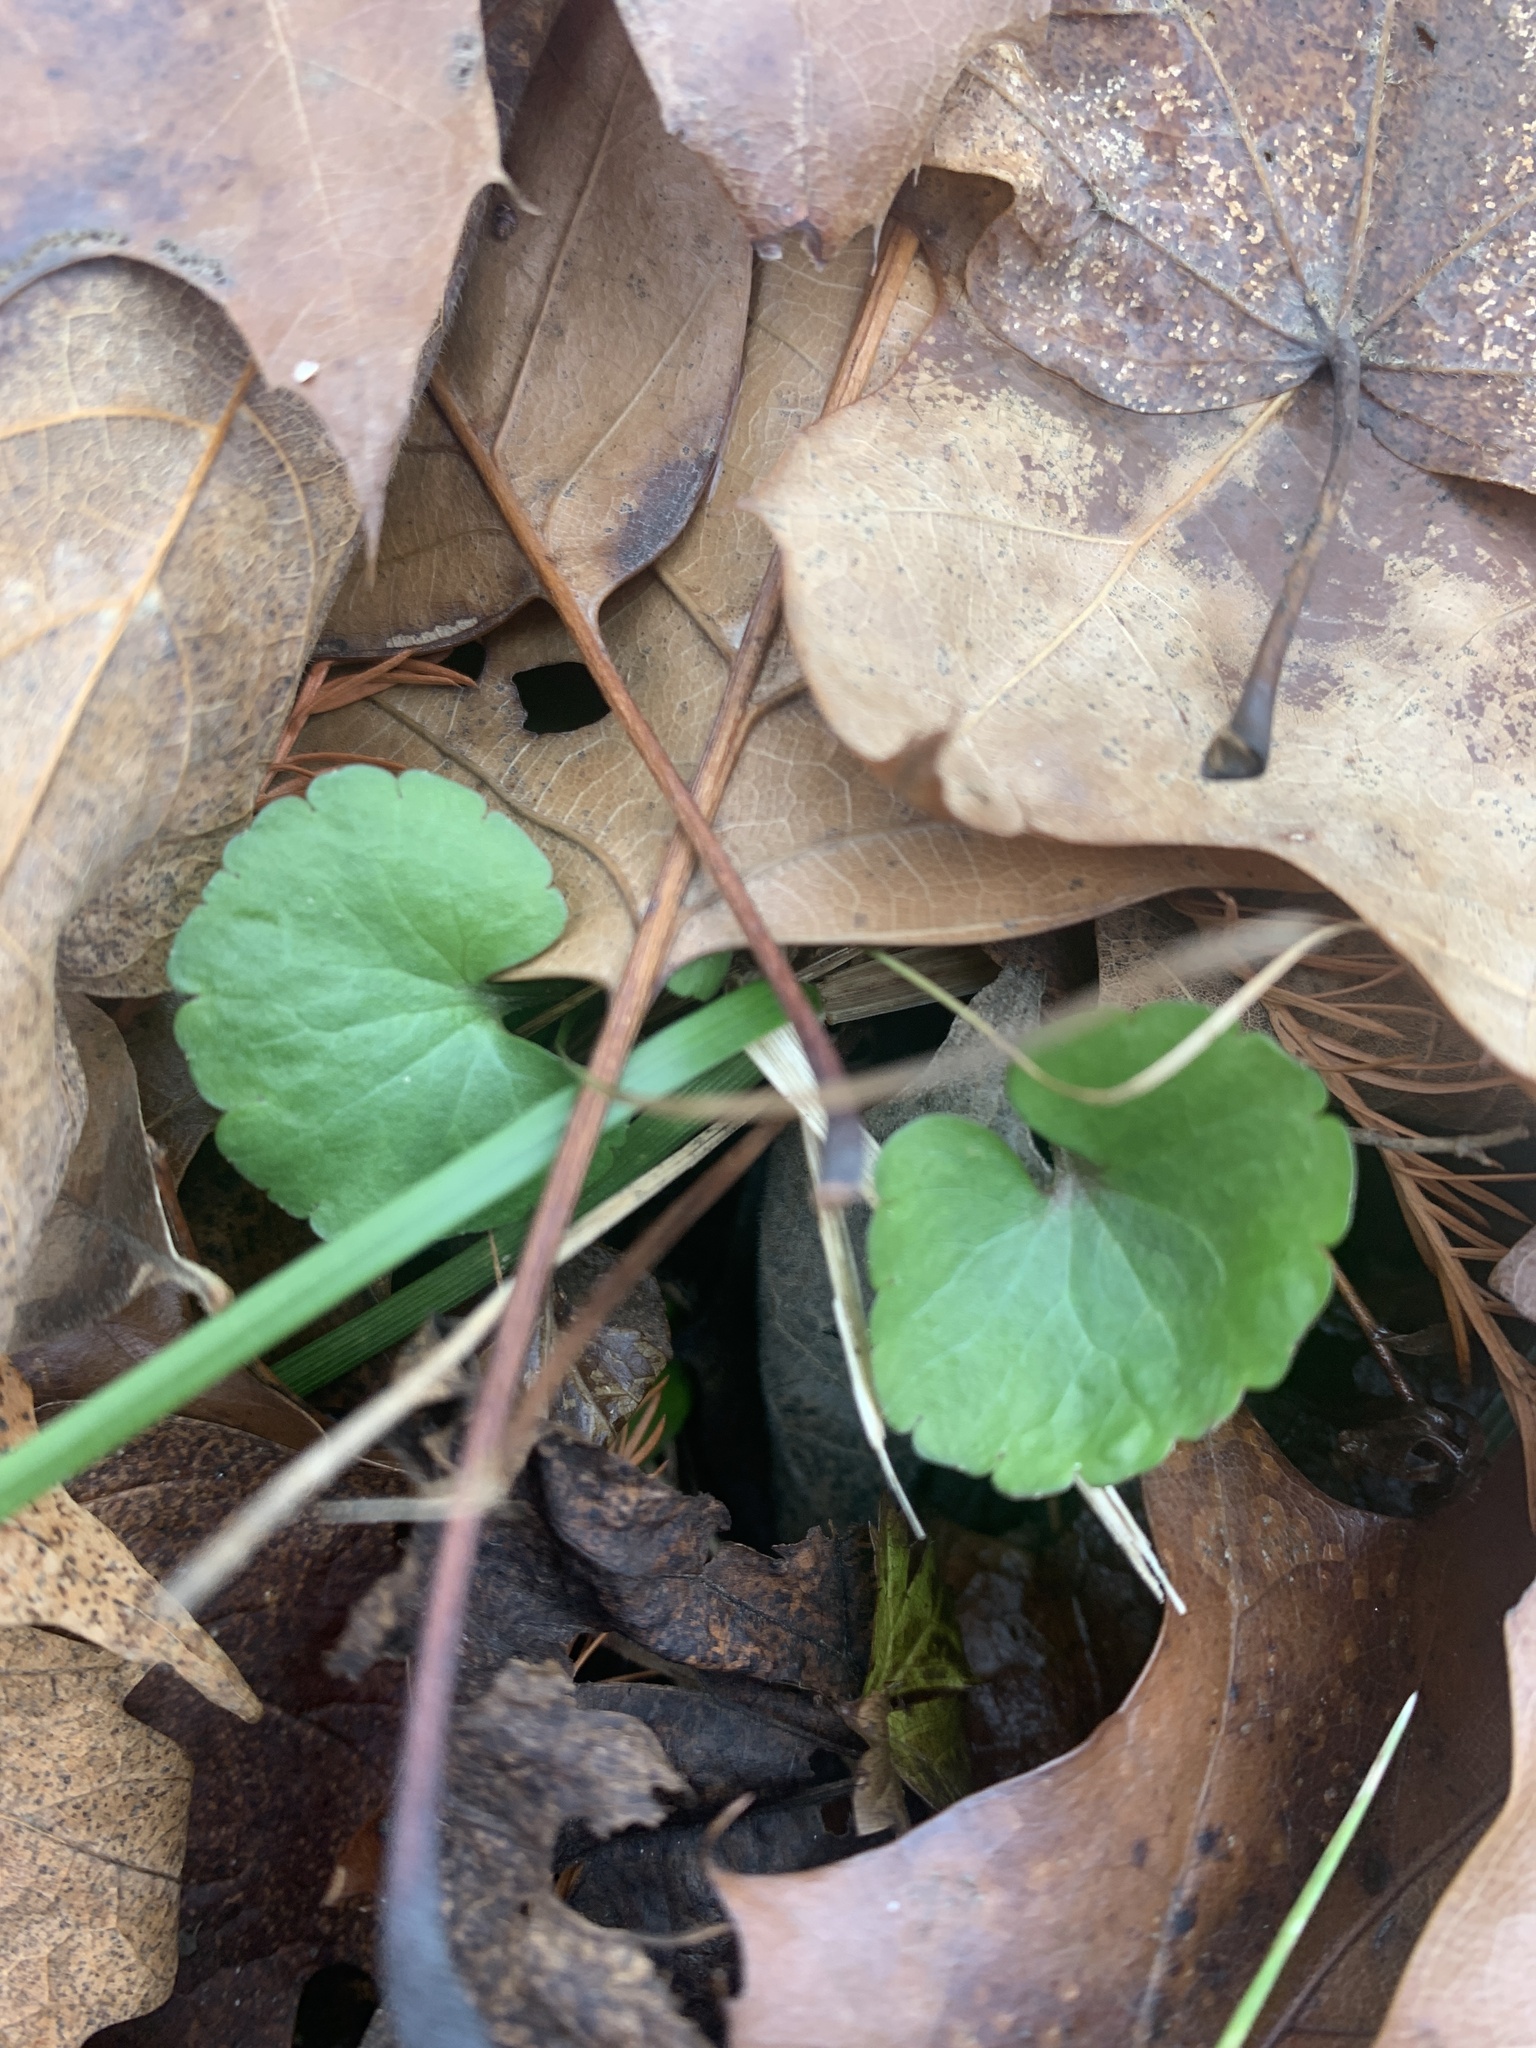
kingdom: Plantae
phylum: Tracheophyta
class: Magnoliopsida
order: Lamiales
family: Lamiaceae
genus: Glechoma
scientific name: Glechoma hederacea
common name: Ground ivy
